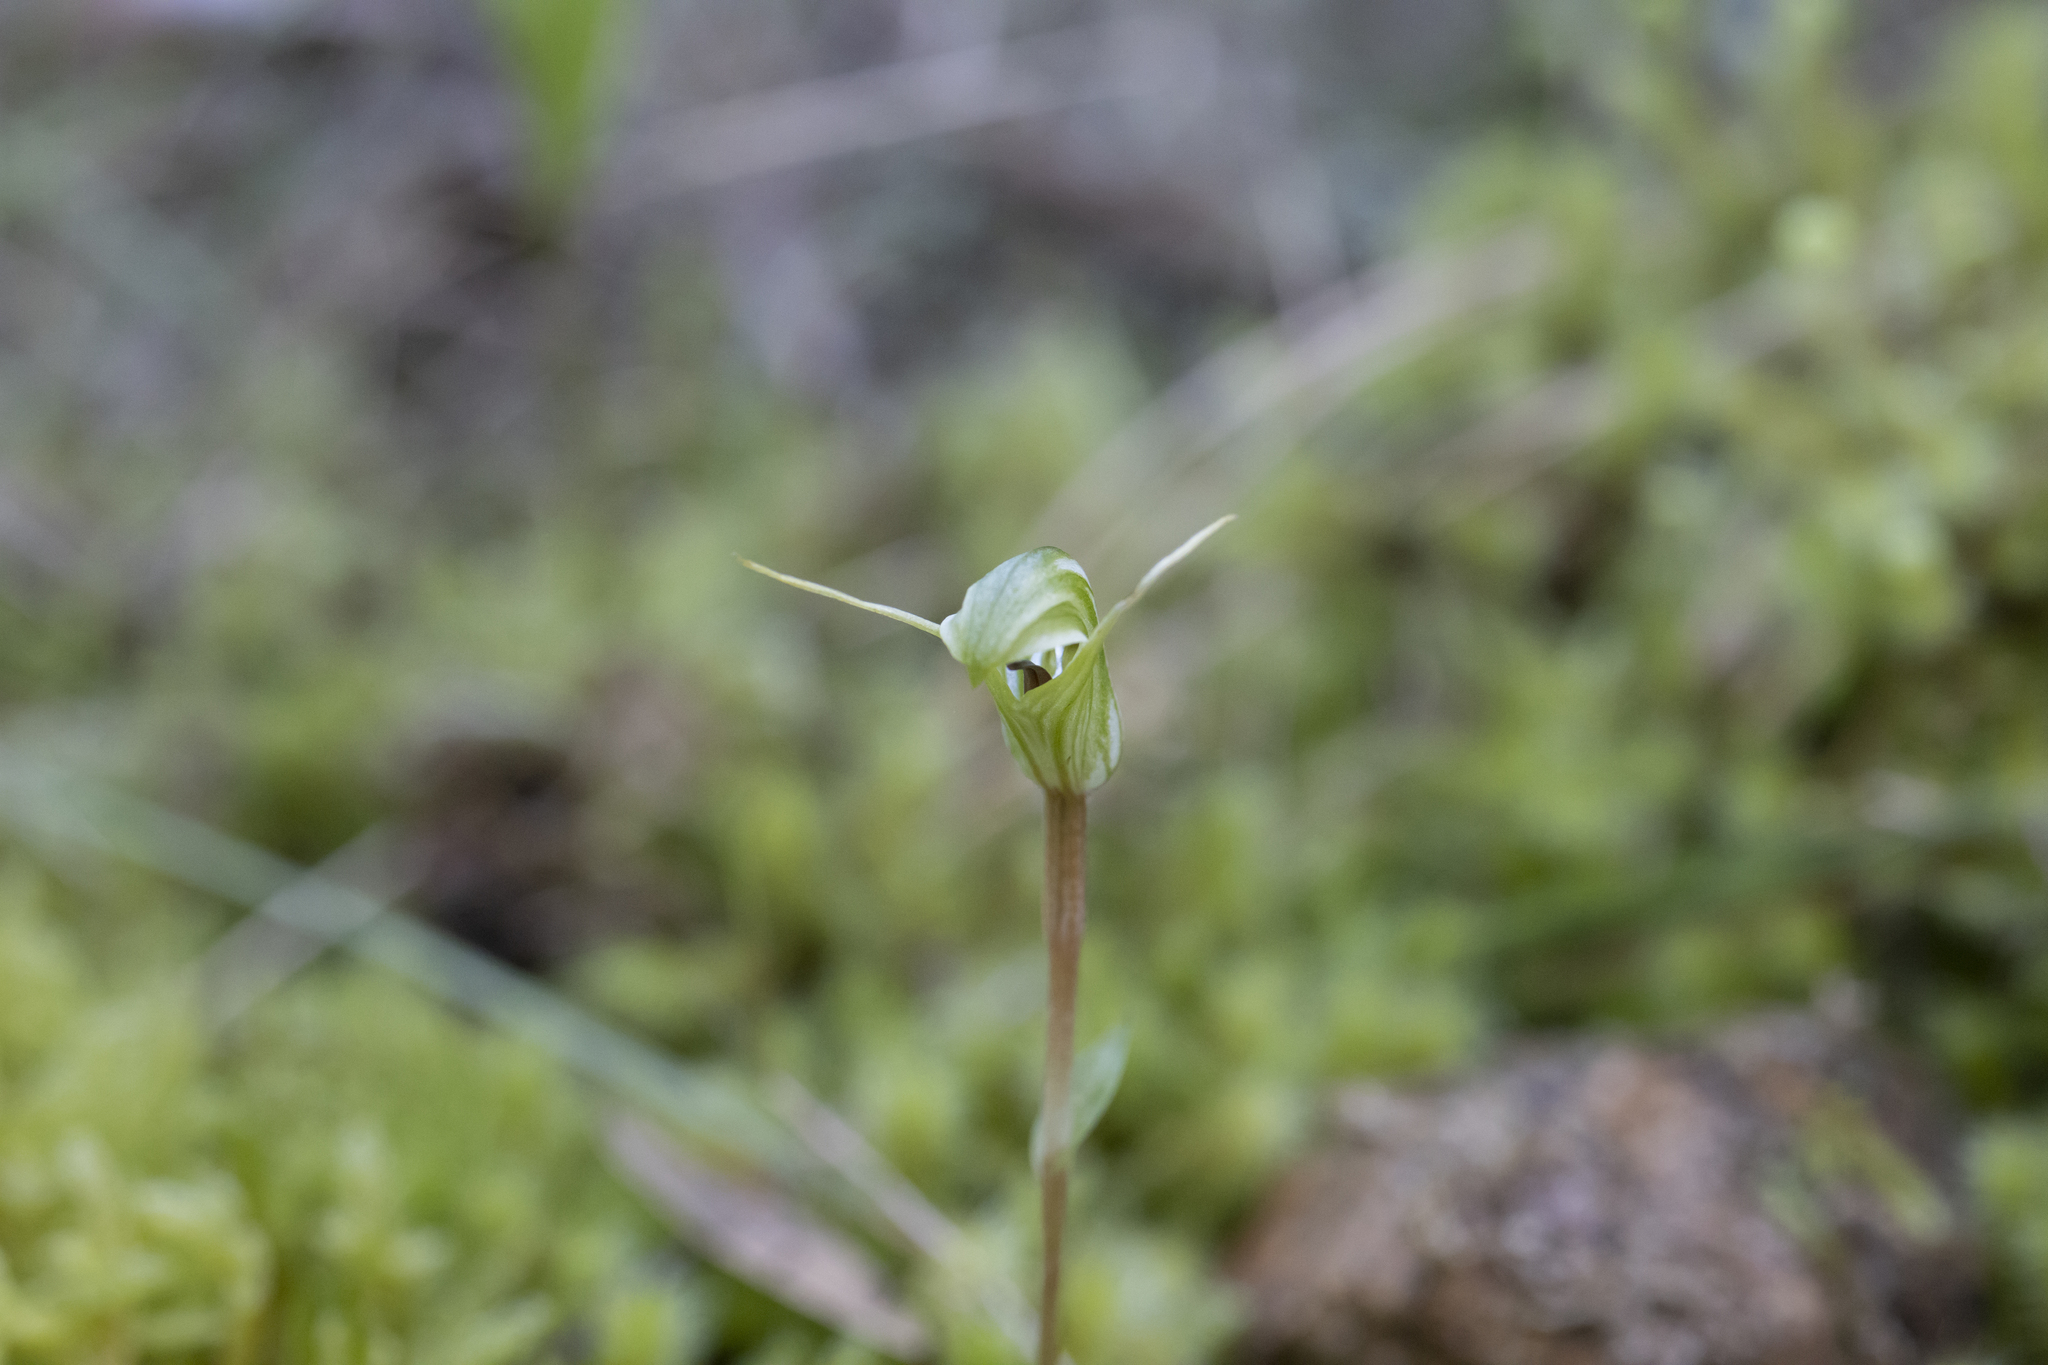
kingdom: Plantae
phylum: Tracheophyta
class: Liliopsida
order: Asparagales
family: Orchidaceae
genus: Pterostylis
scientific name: Pterostylis trullifolia
